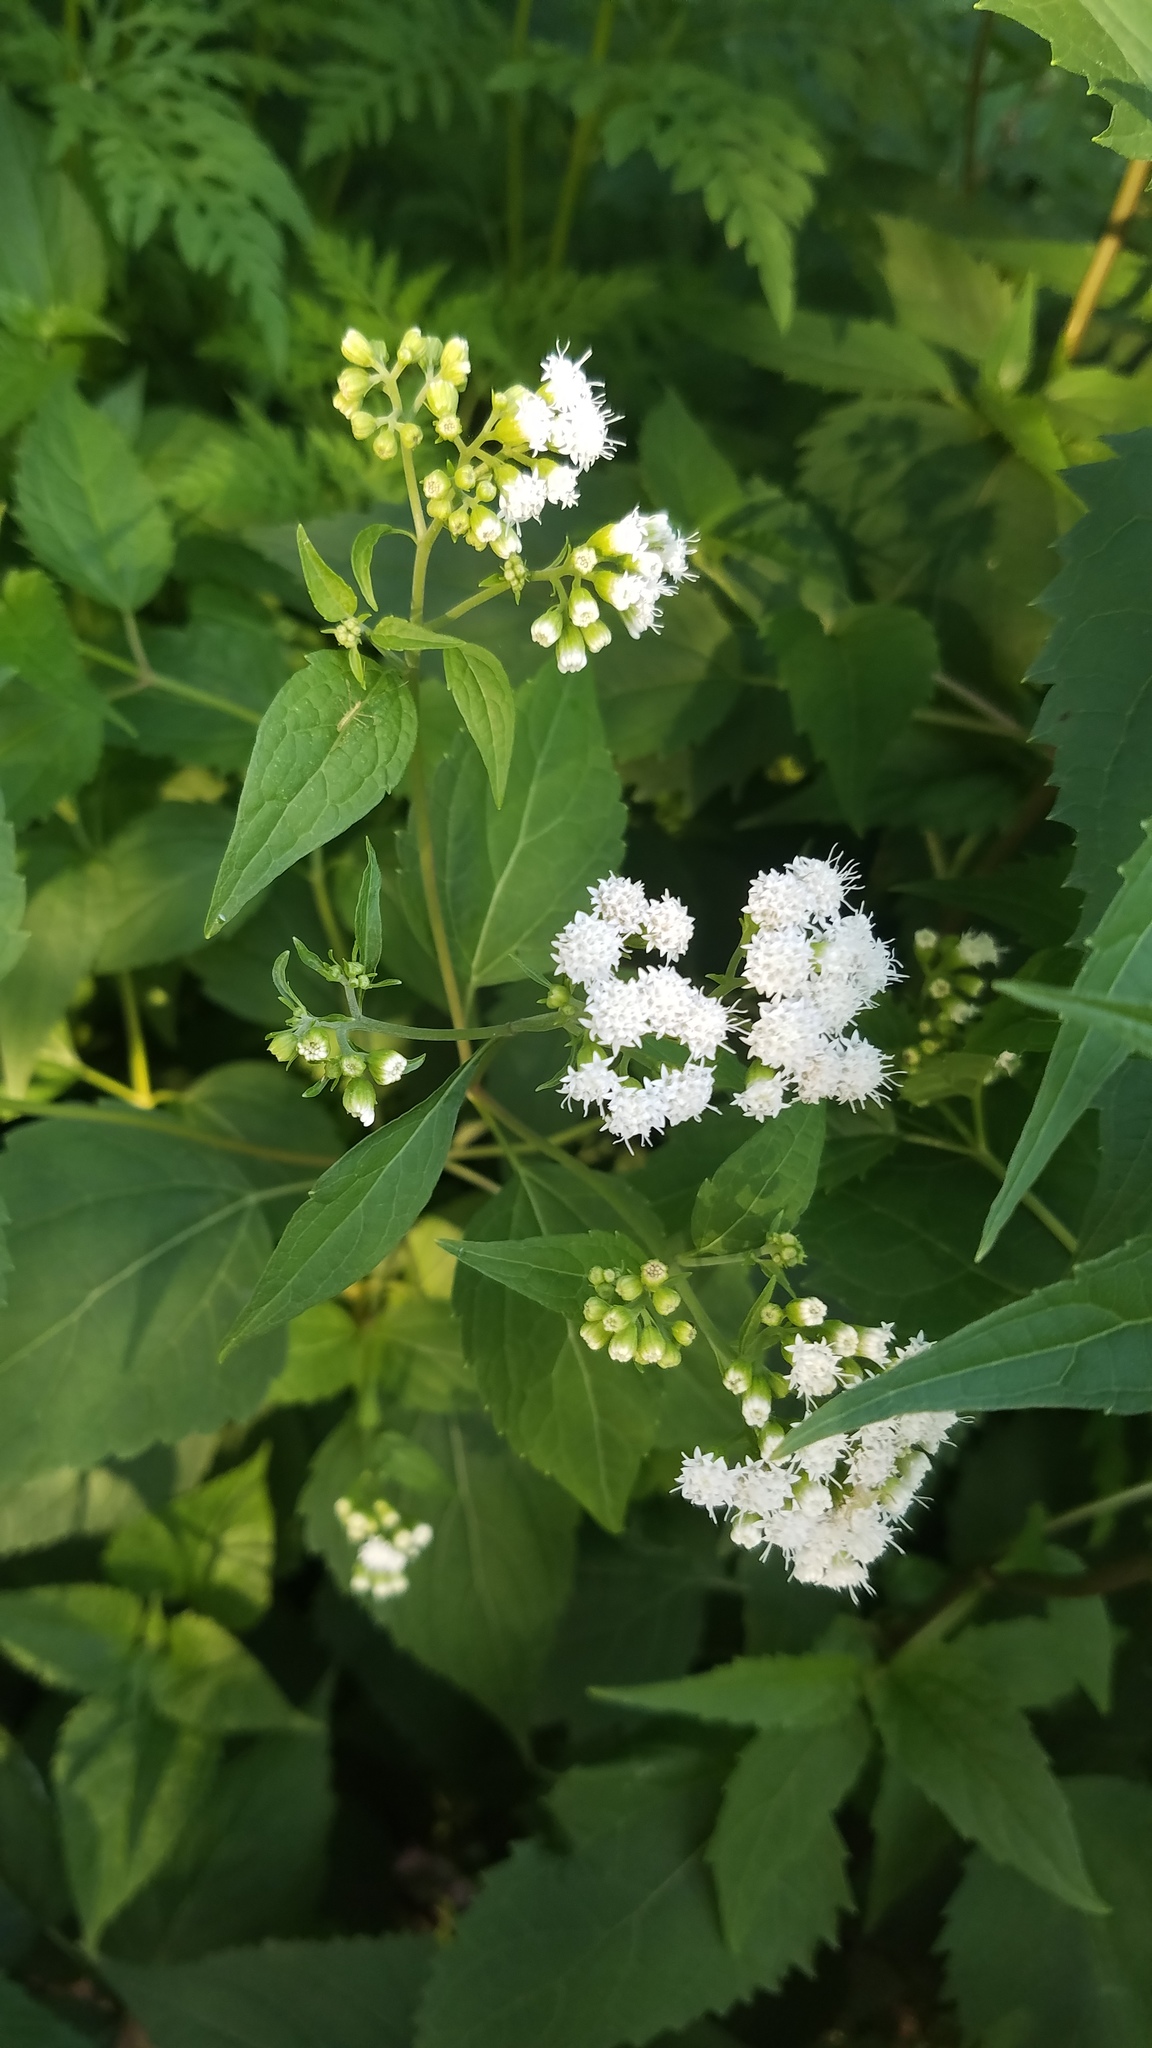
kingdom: Plantae
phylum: Tracheophyta
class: Magnoliopsida
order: Asterales
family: Asteraceae
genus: Ageratina
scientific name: Ageratina altissima
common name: White snakeroot
